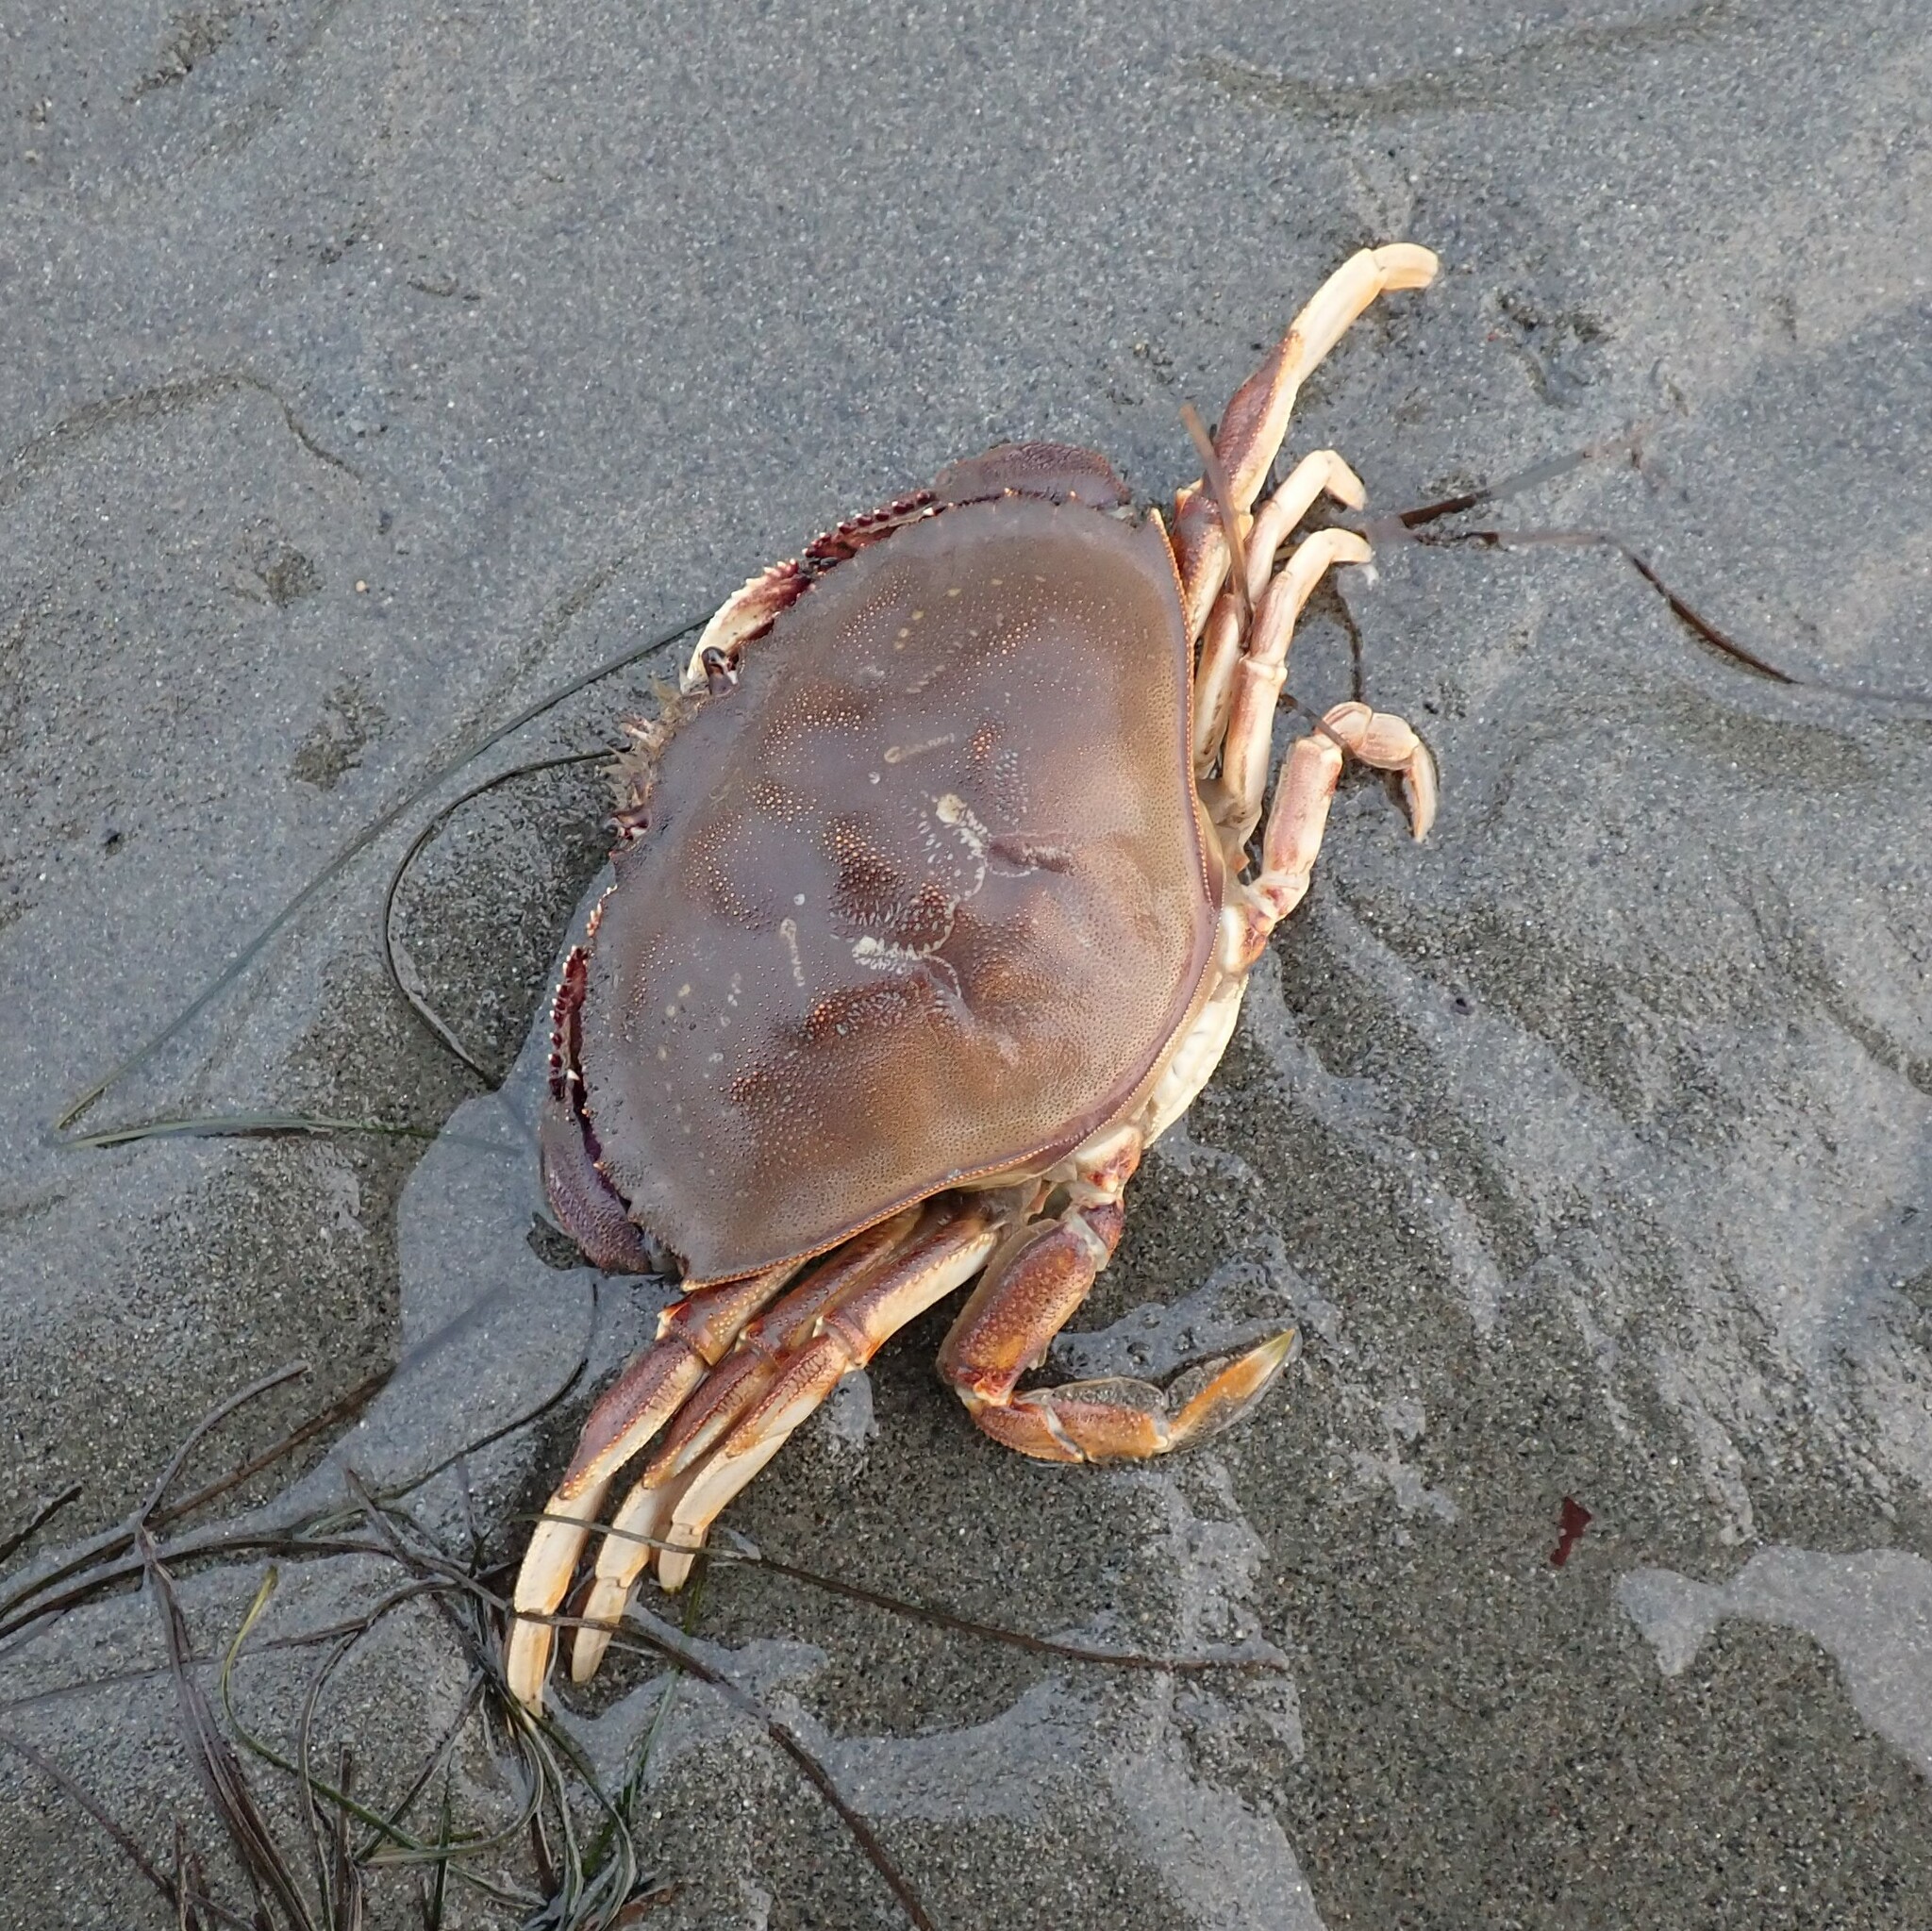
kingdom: Animalia
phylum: Arthropoda
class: Malacostraca
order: Decapoda
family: Cancridae
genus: Metacarcinus
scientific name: Metacarcinus magister
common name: Californian crab
